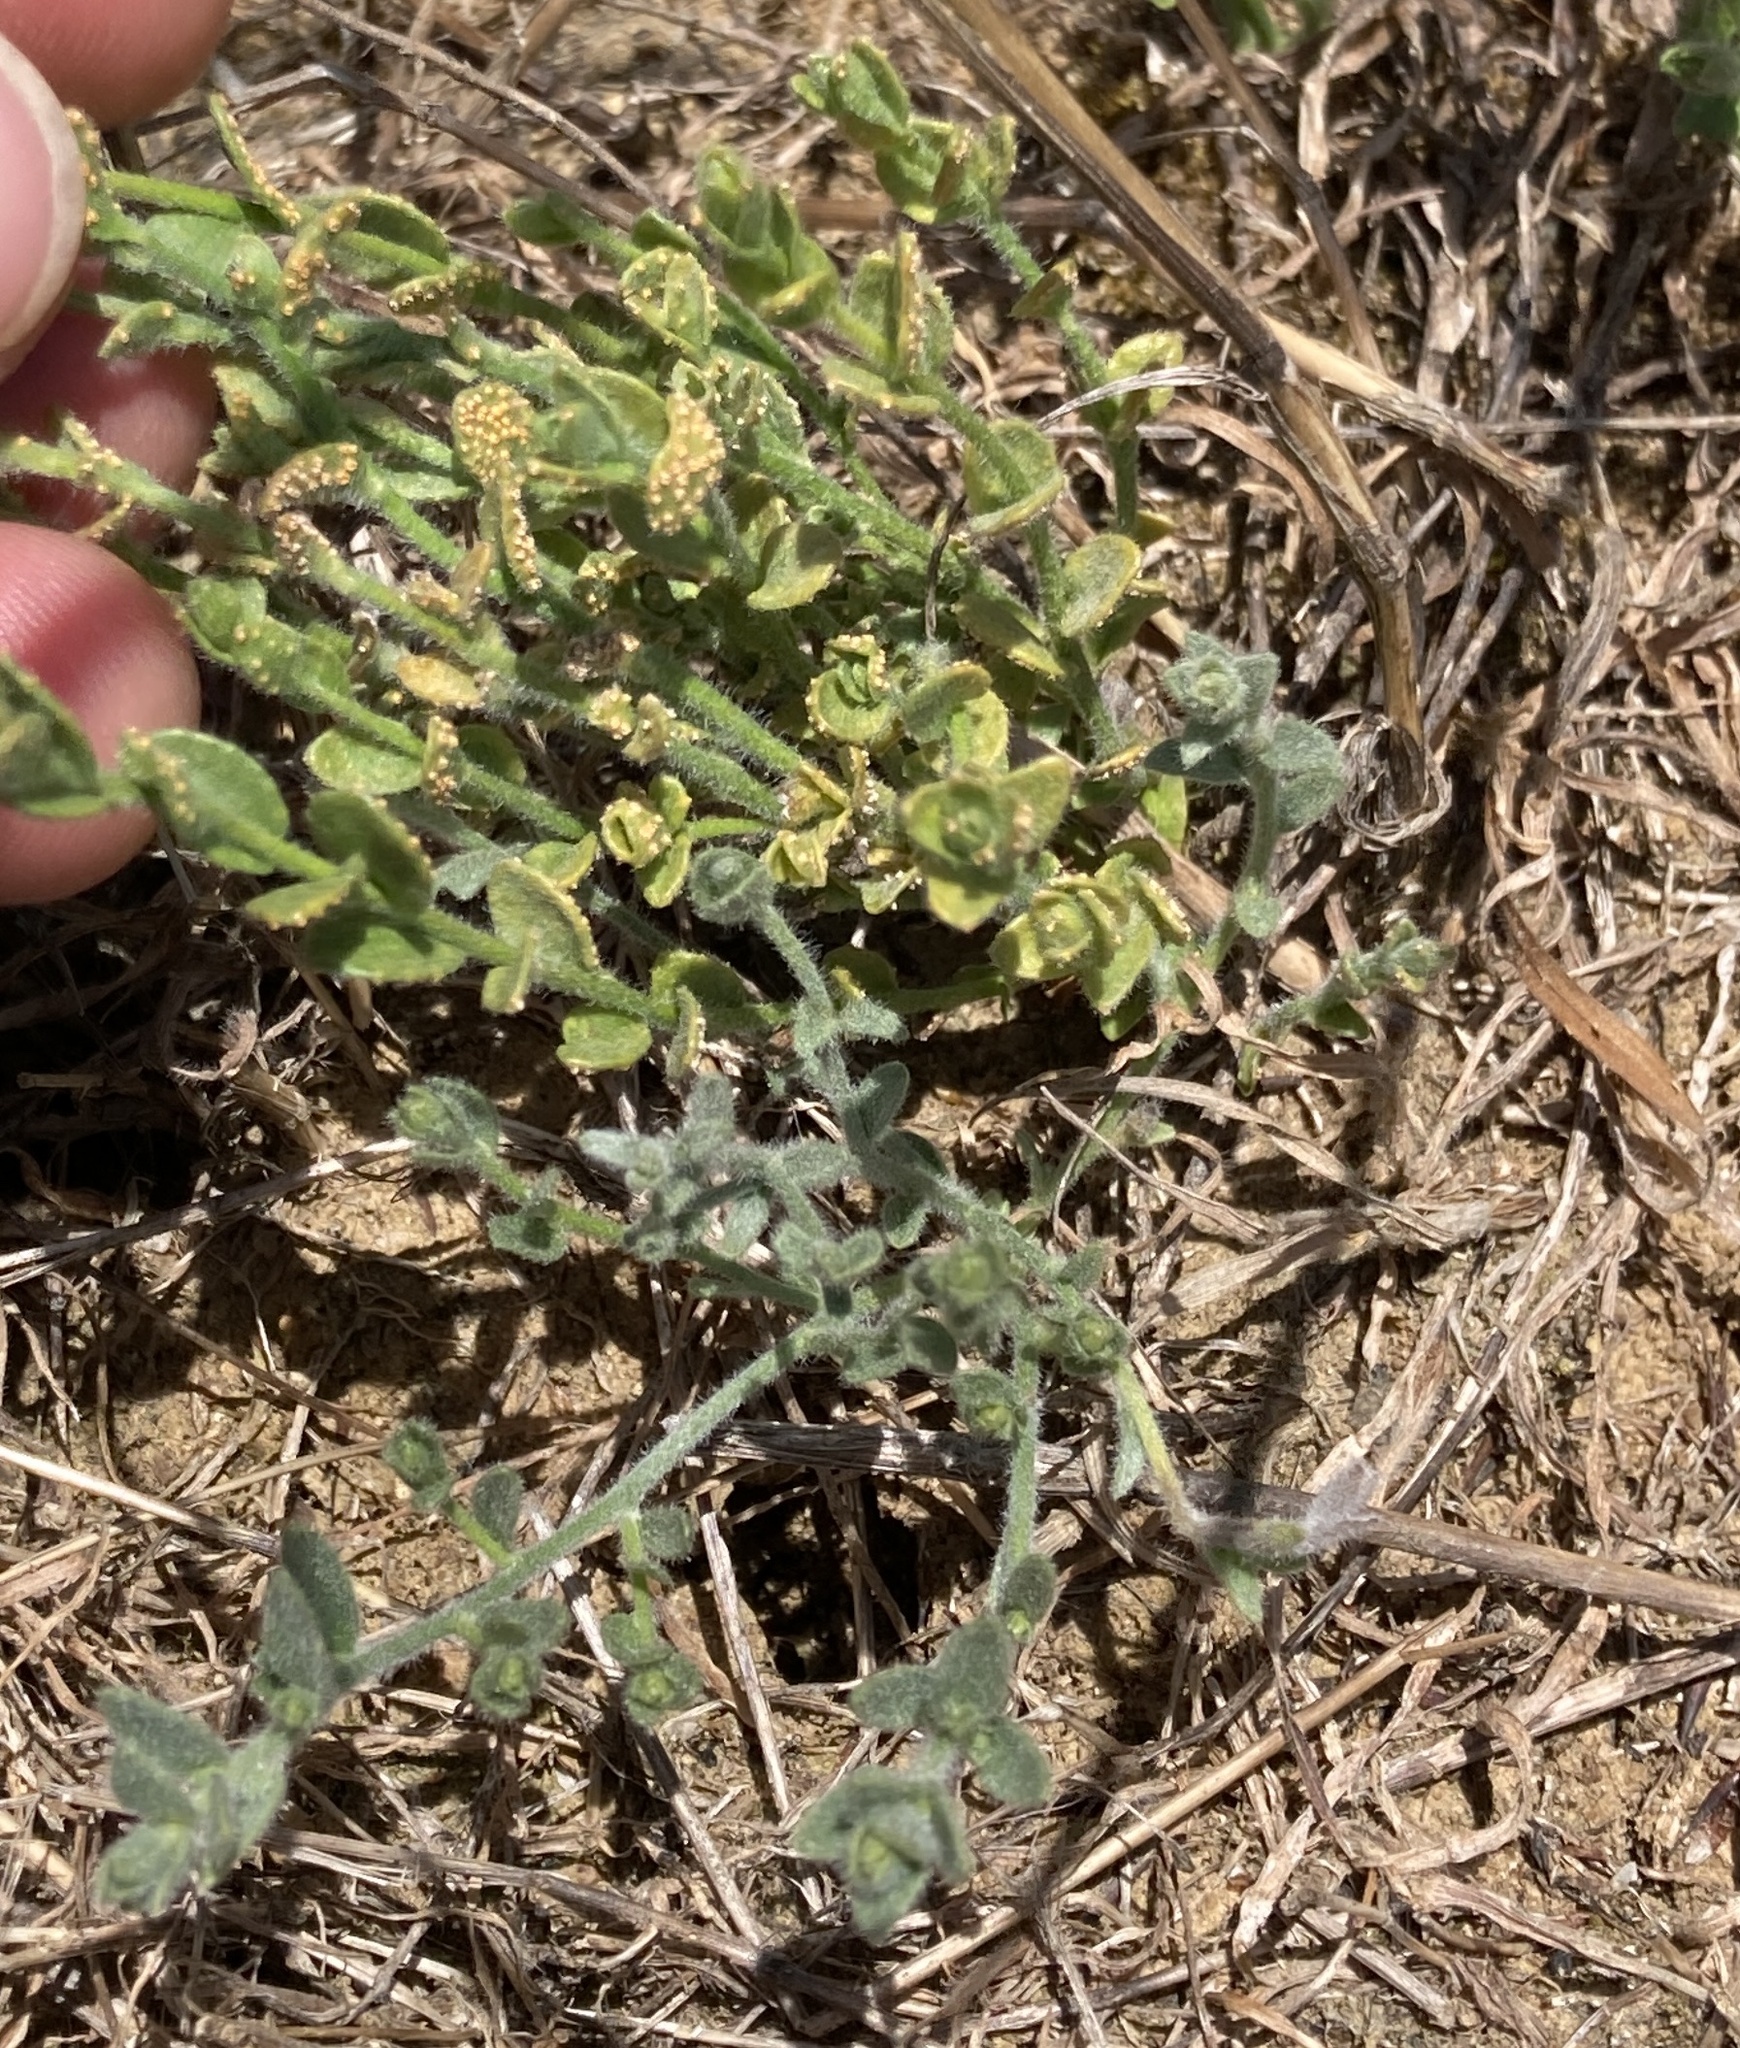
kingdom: Plantae
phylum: Tracheophyta
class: Magnoliopsida
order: Solanales
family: Convolvulaceae
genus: Cressa
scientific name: Cressa truxillensis
